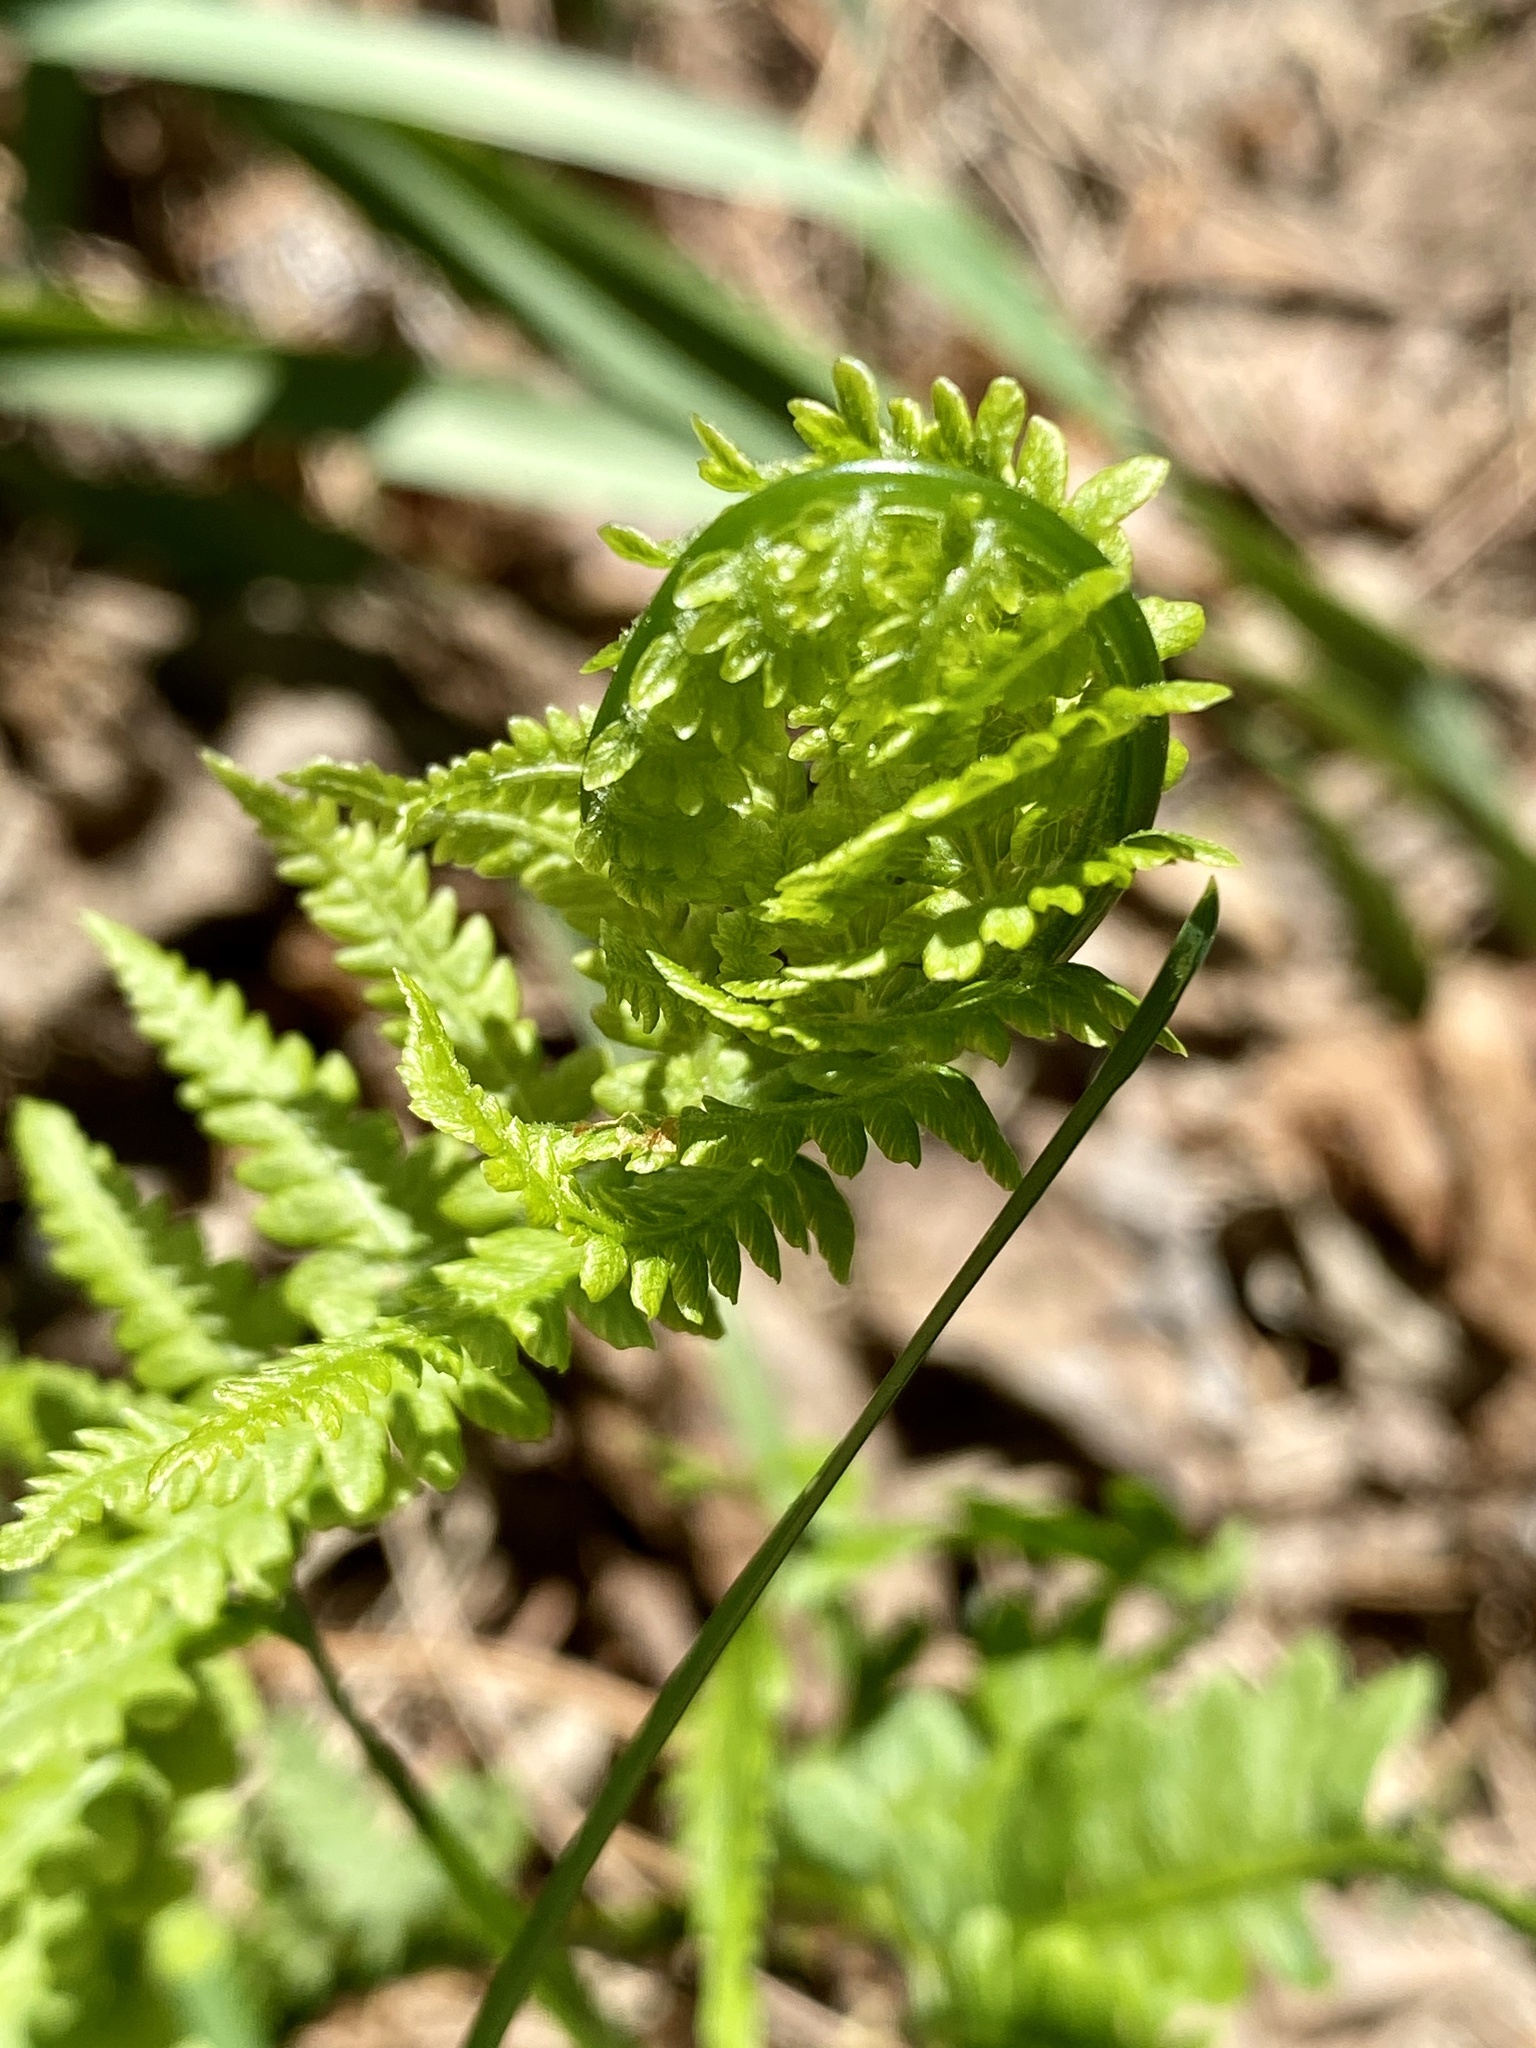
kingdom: Plantae
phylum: Tracheophyta
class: Polypodiopsida
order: Polypodiales
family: Onocleaceae
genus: Matteuccia
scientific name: Matteuccia struthiopteris
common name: Ostrich fern
